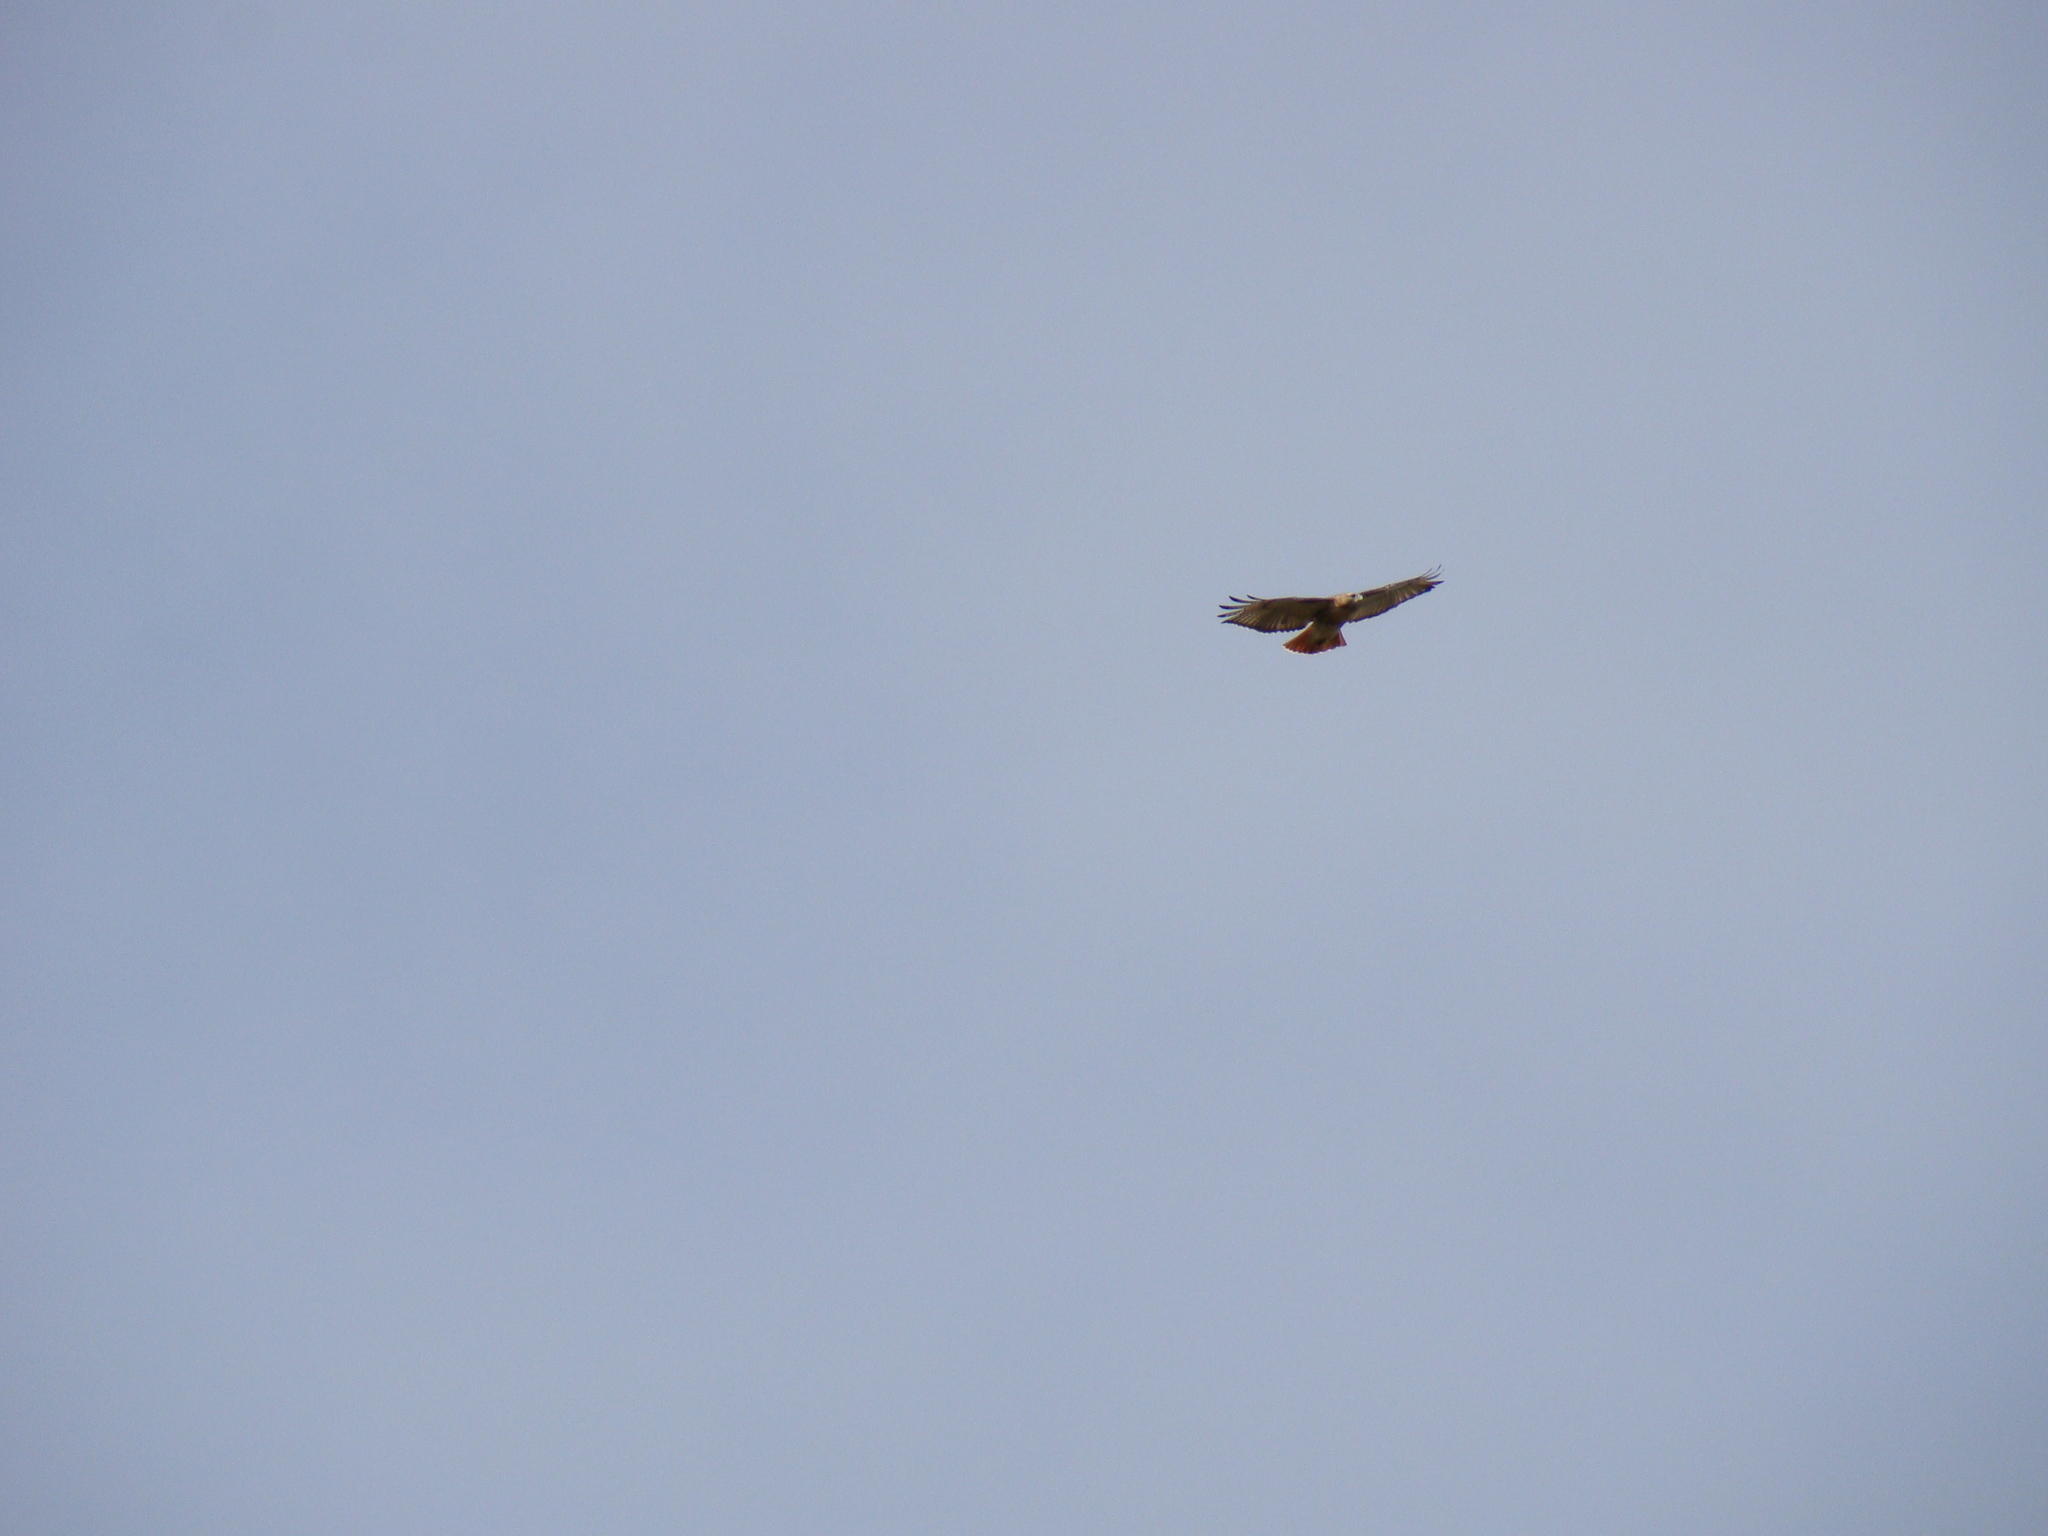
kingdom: Animalia
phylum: Chordata
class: Aves
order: Accipitriformes
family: Accipitridae
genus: Buteo
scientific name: Buteo jamaicensis
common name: Red-tailed hawk
